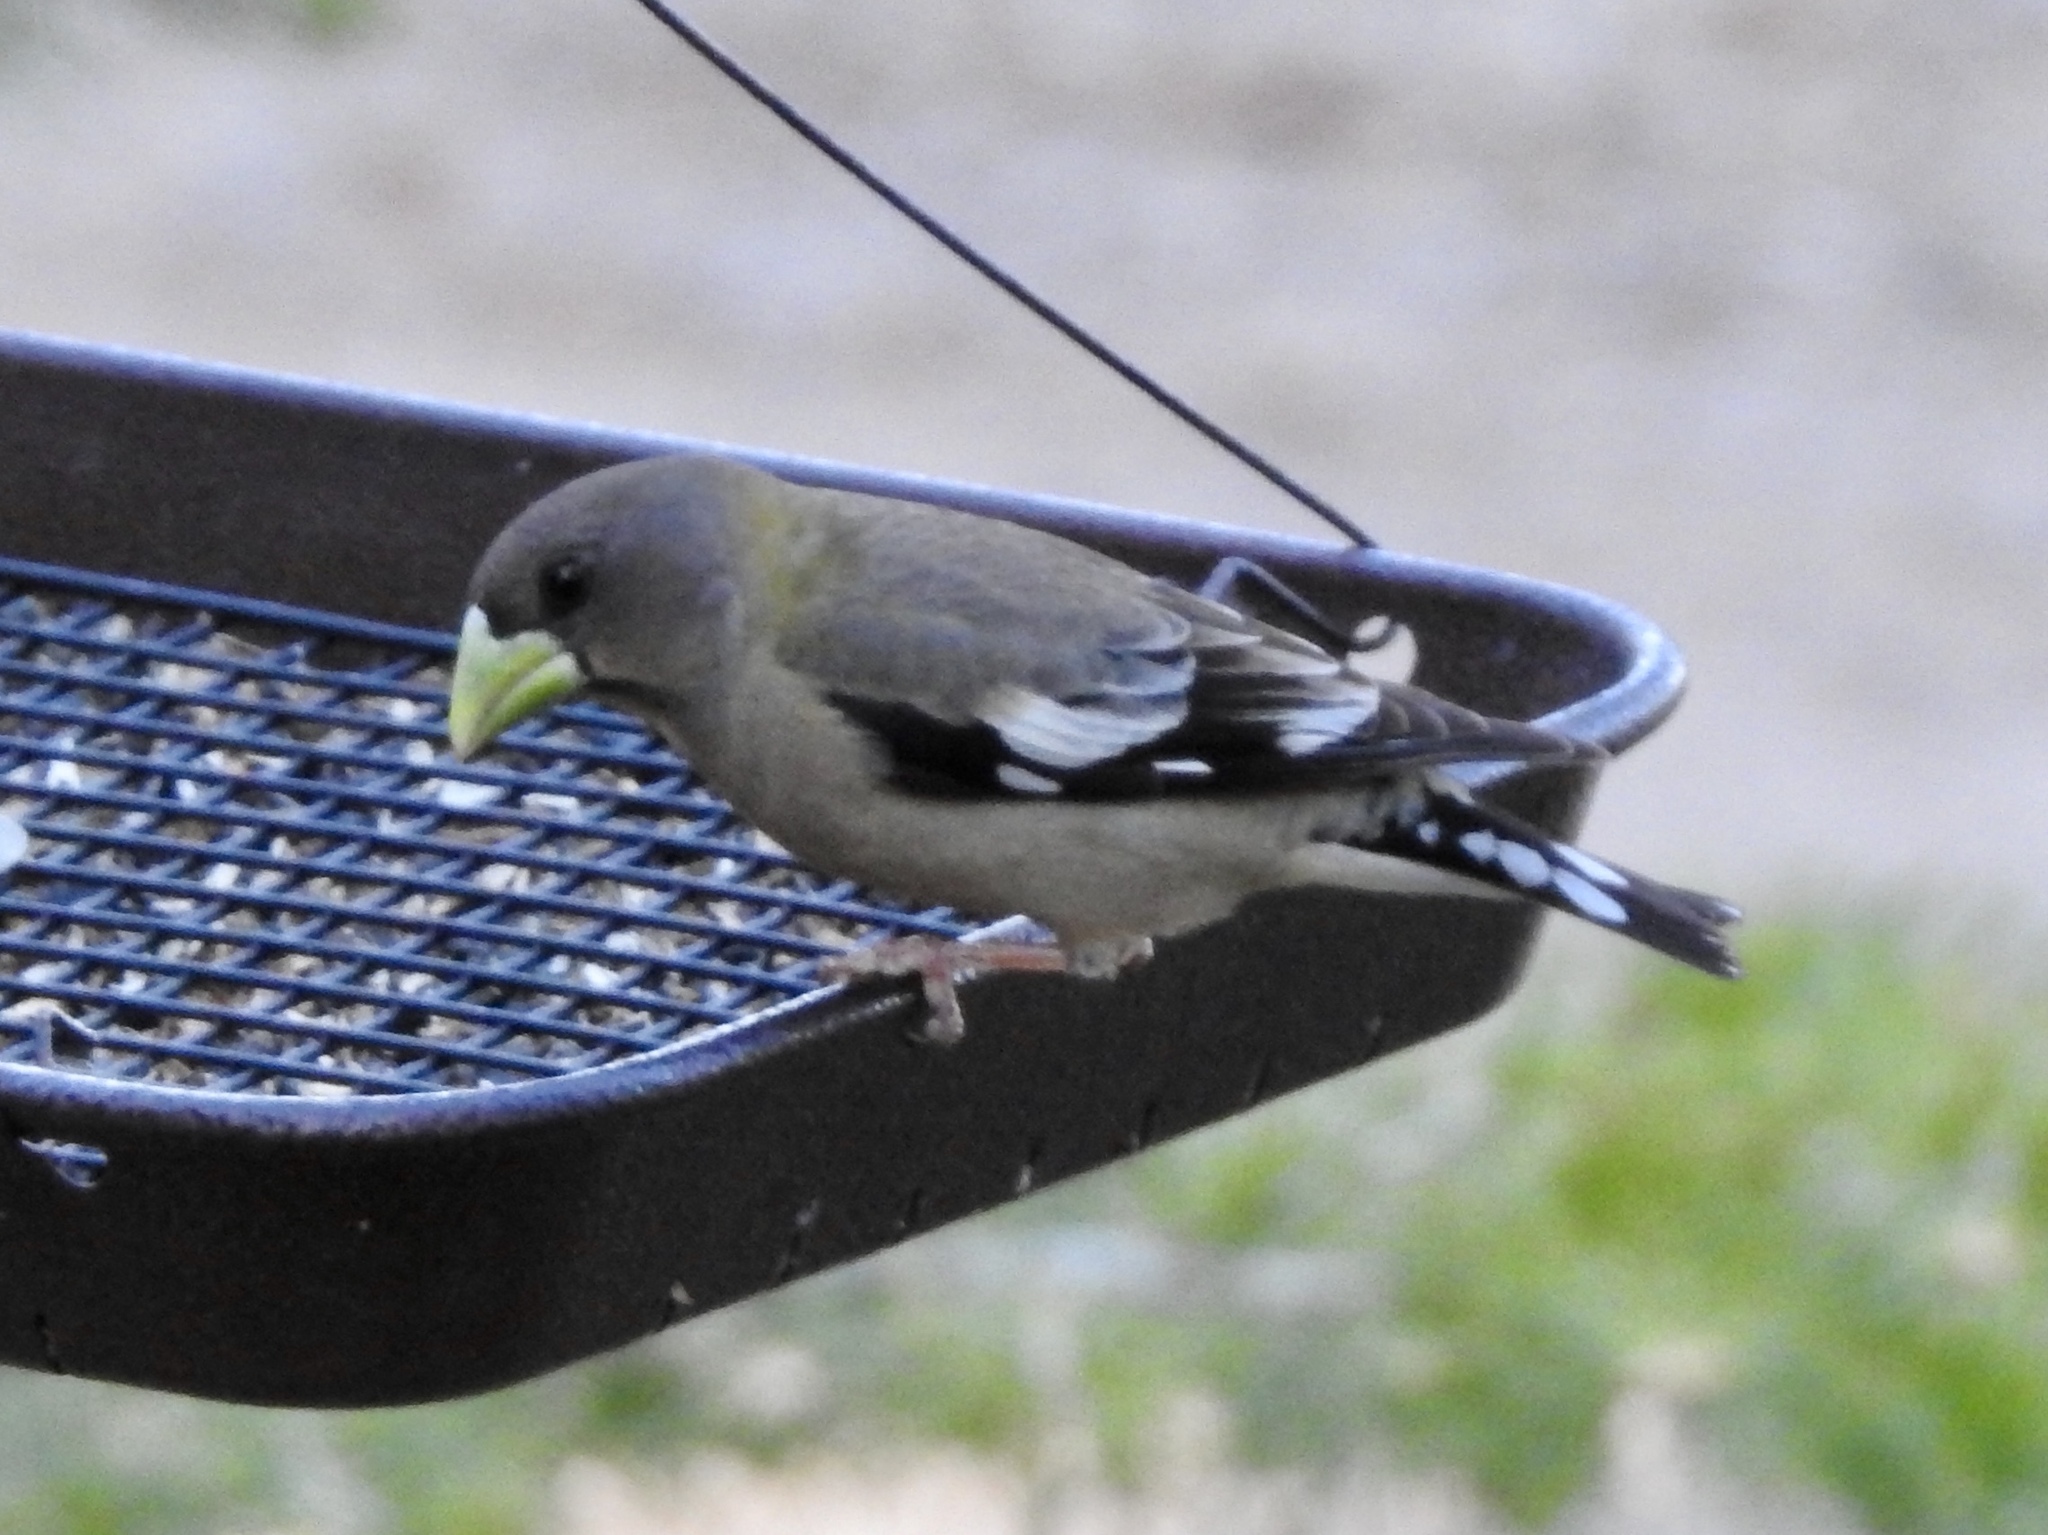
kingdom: Animalia
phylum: Chordata
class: Aves
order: Passeriformes
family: Fringillidae
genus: Hesperiphona
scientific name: Hesperiphona vespertina
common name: Evening grosbeak
